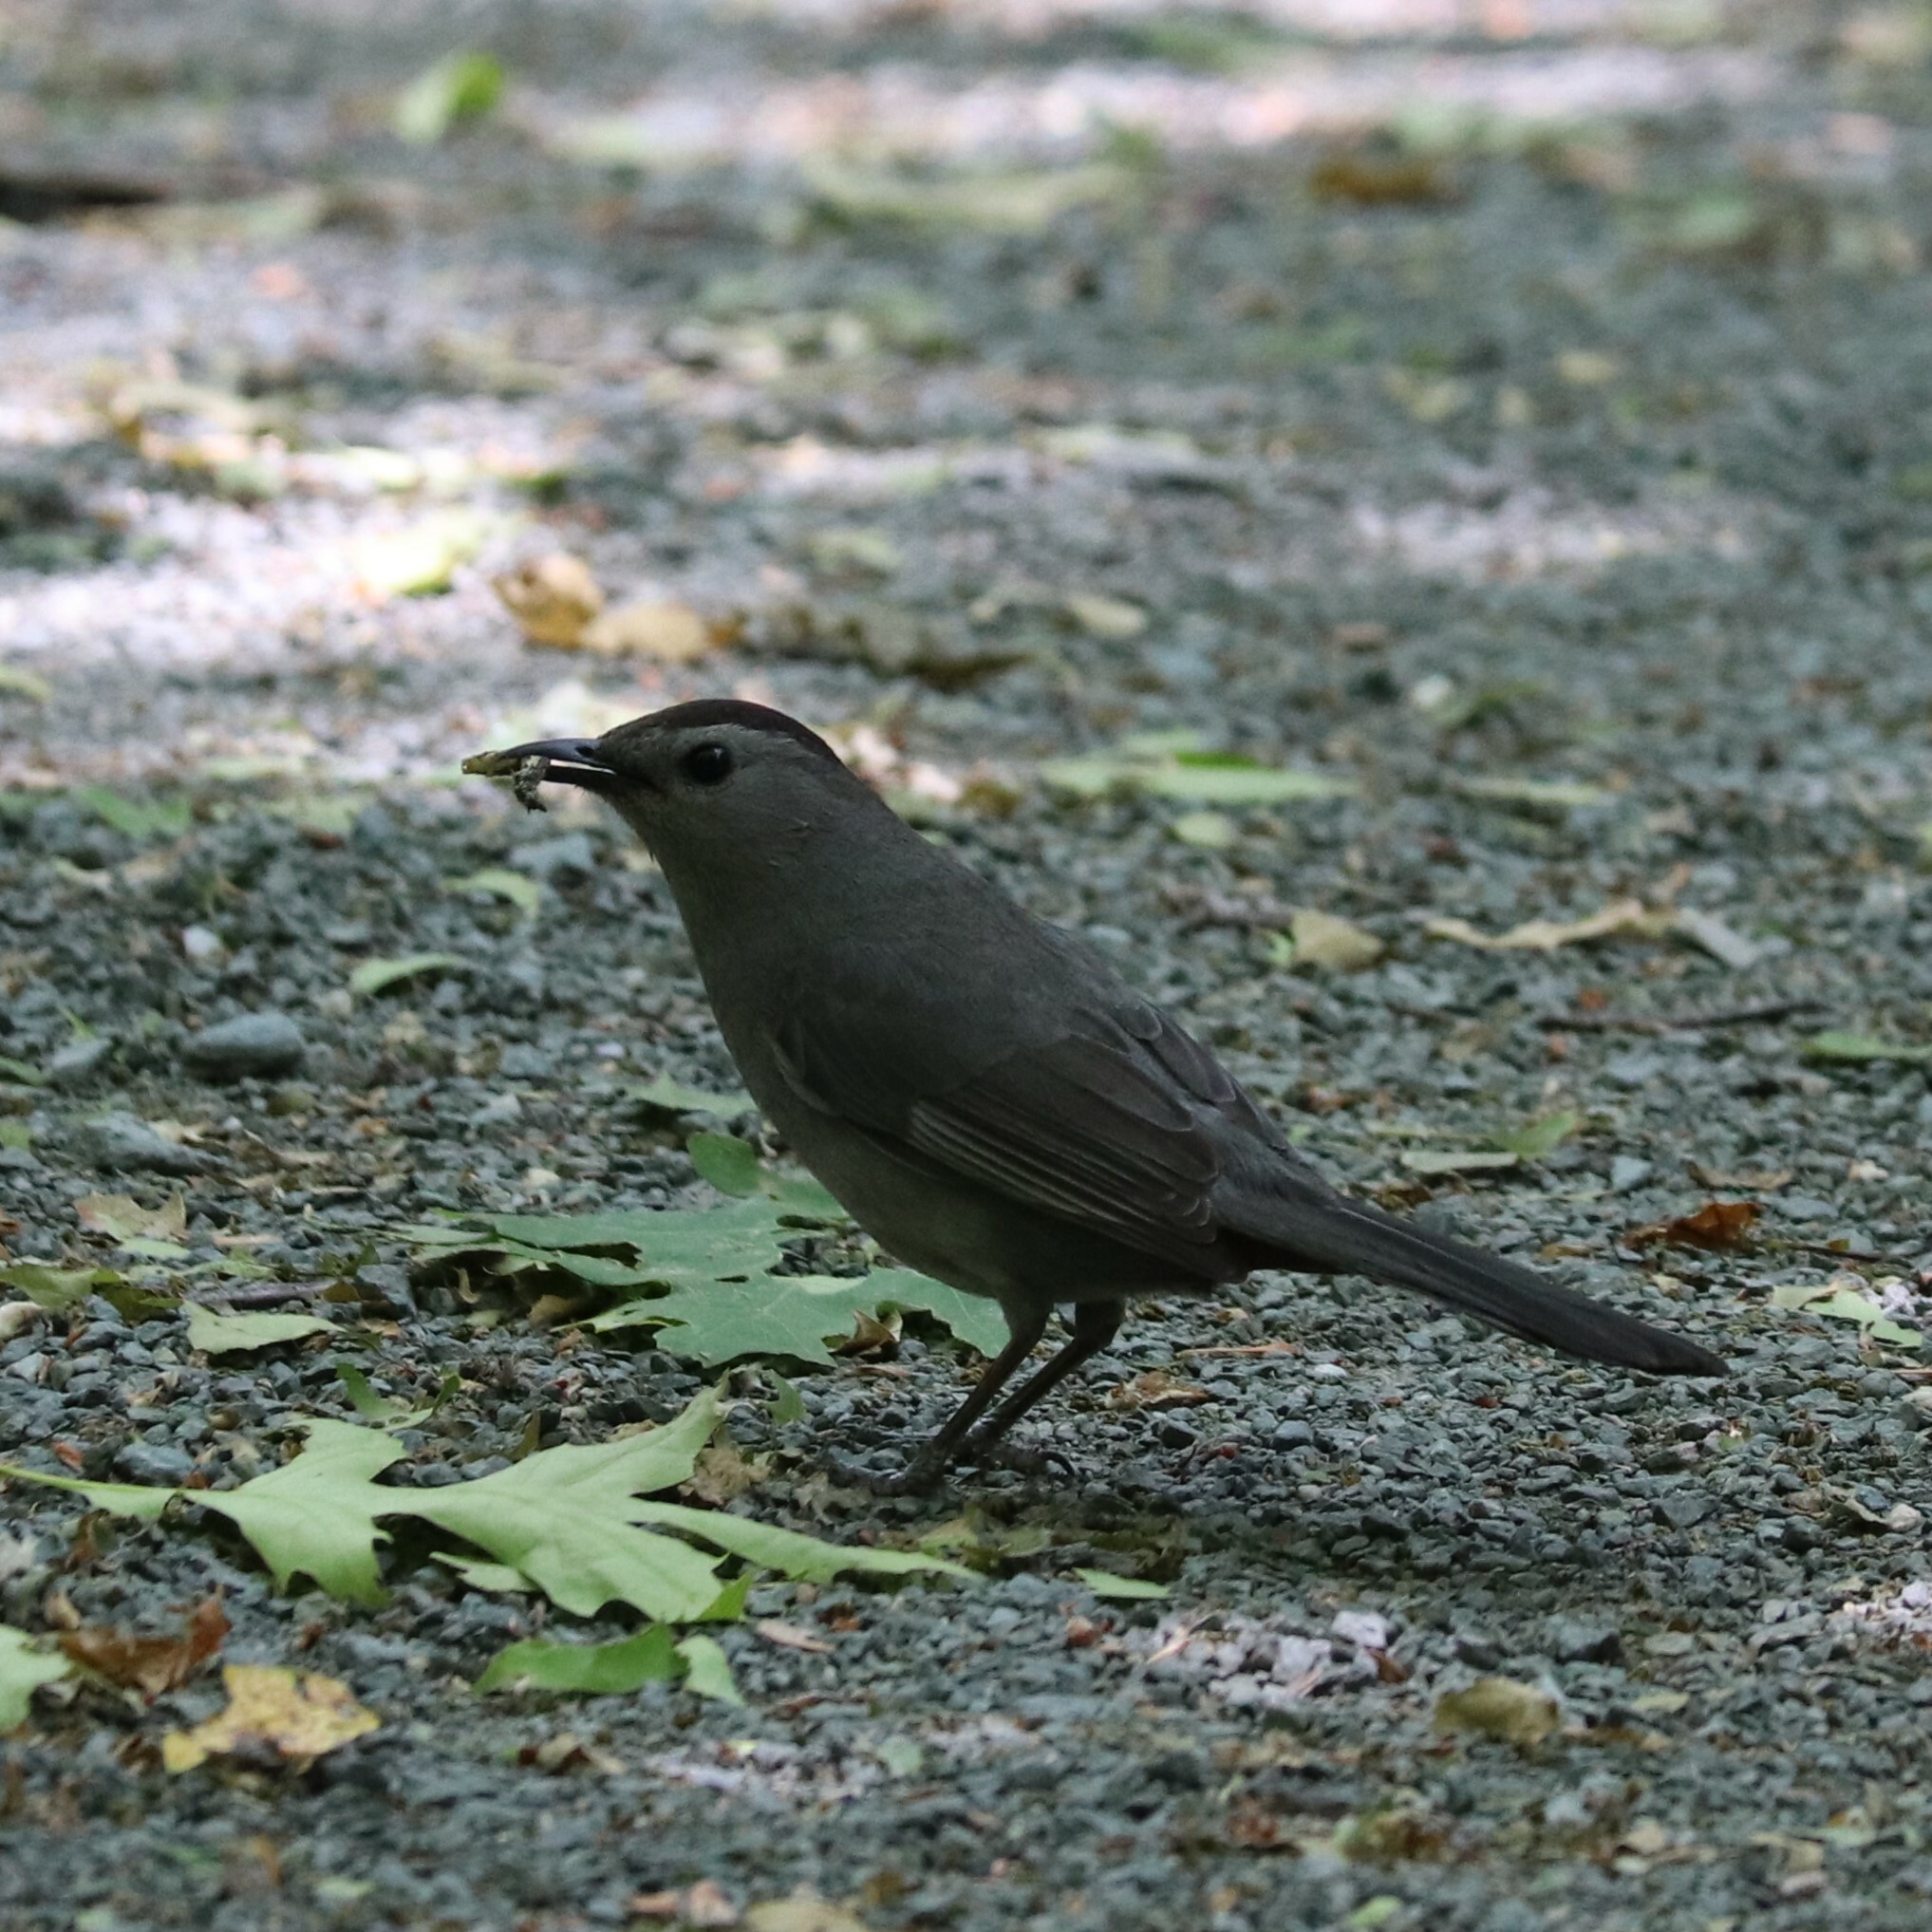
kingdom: Animalia
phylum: Chordata
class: Aves
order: Passeriformes
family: Mimidae
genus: Dumetella
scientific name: Dumetella carolinensis
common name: Gray catbird
